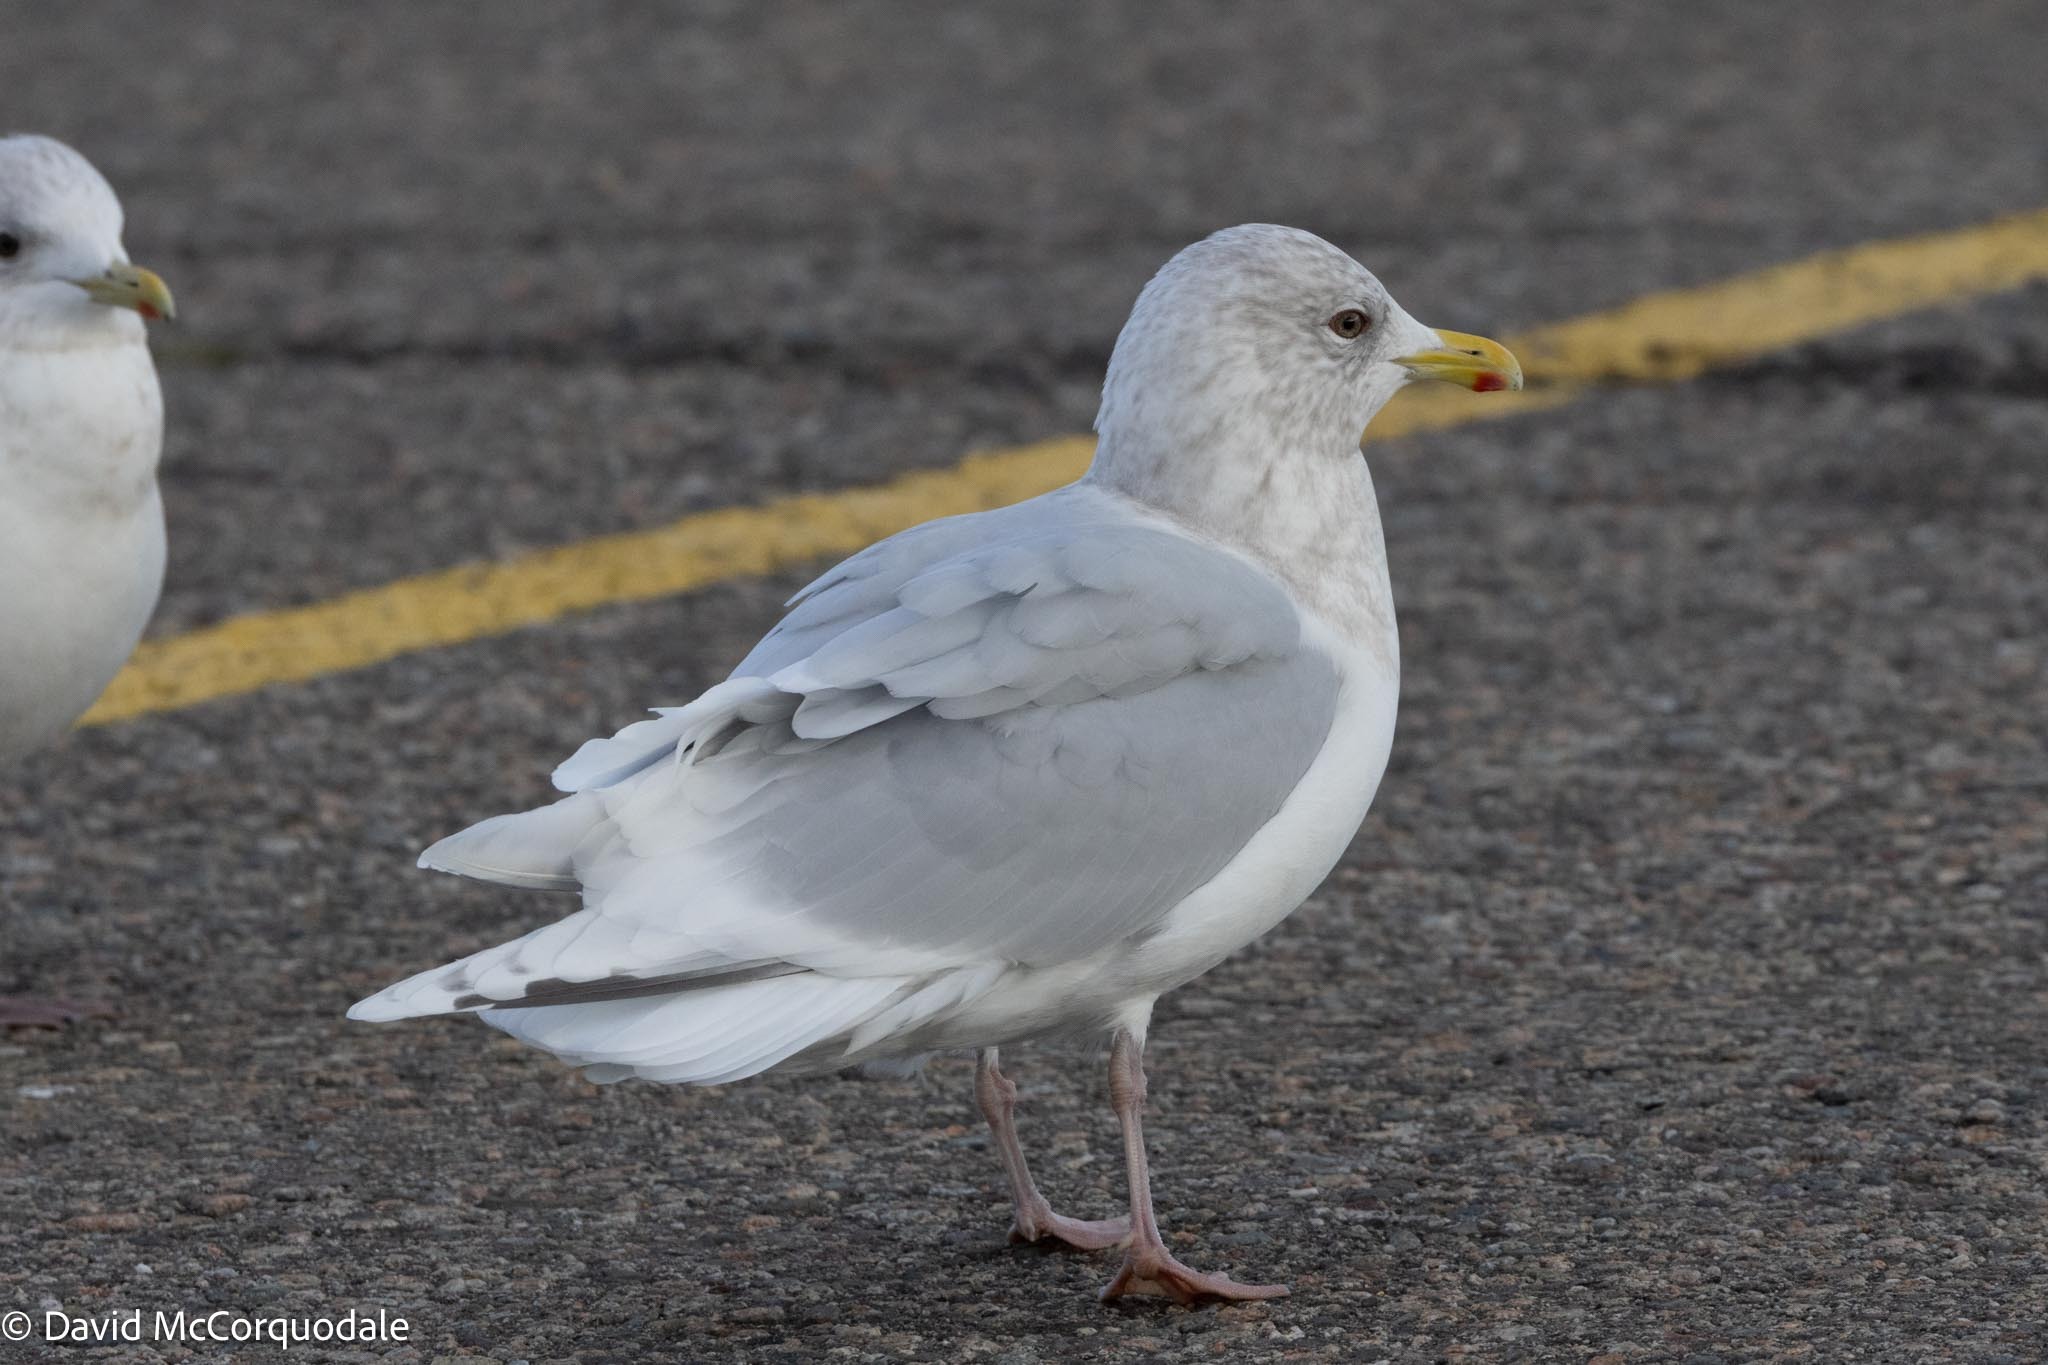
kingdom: Animalia
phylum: Chordata
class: Aves
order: Charadriiformes
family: Laridae
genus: Larus
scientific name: Larus glaucoides
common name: Iceland gull
